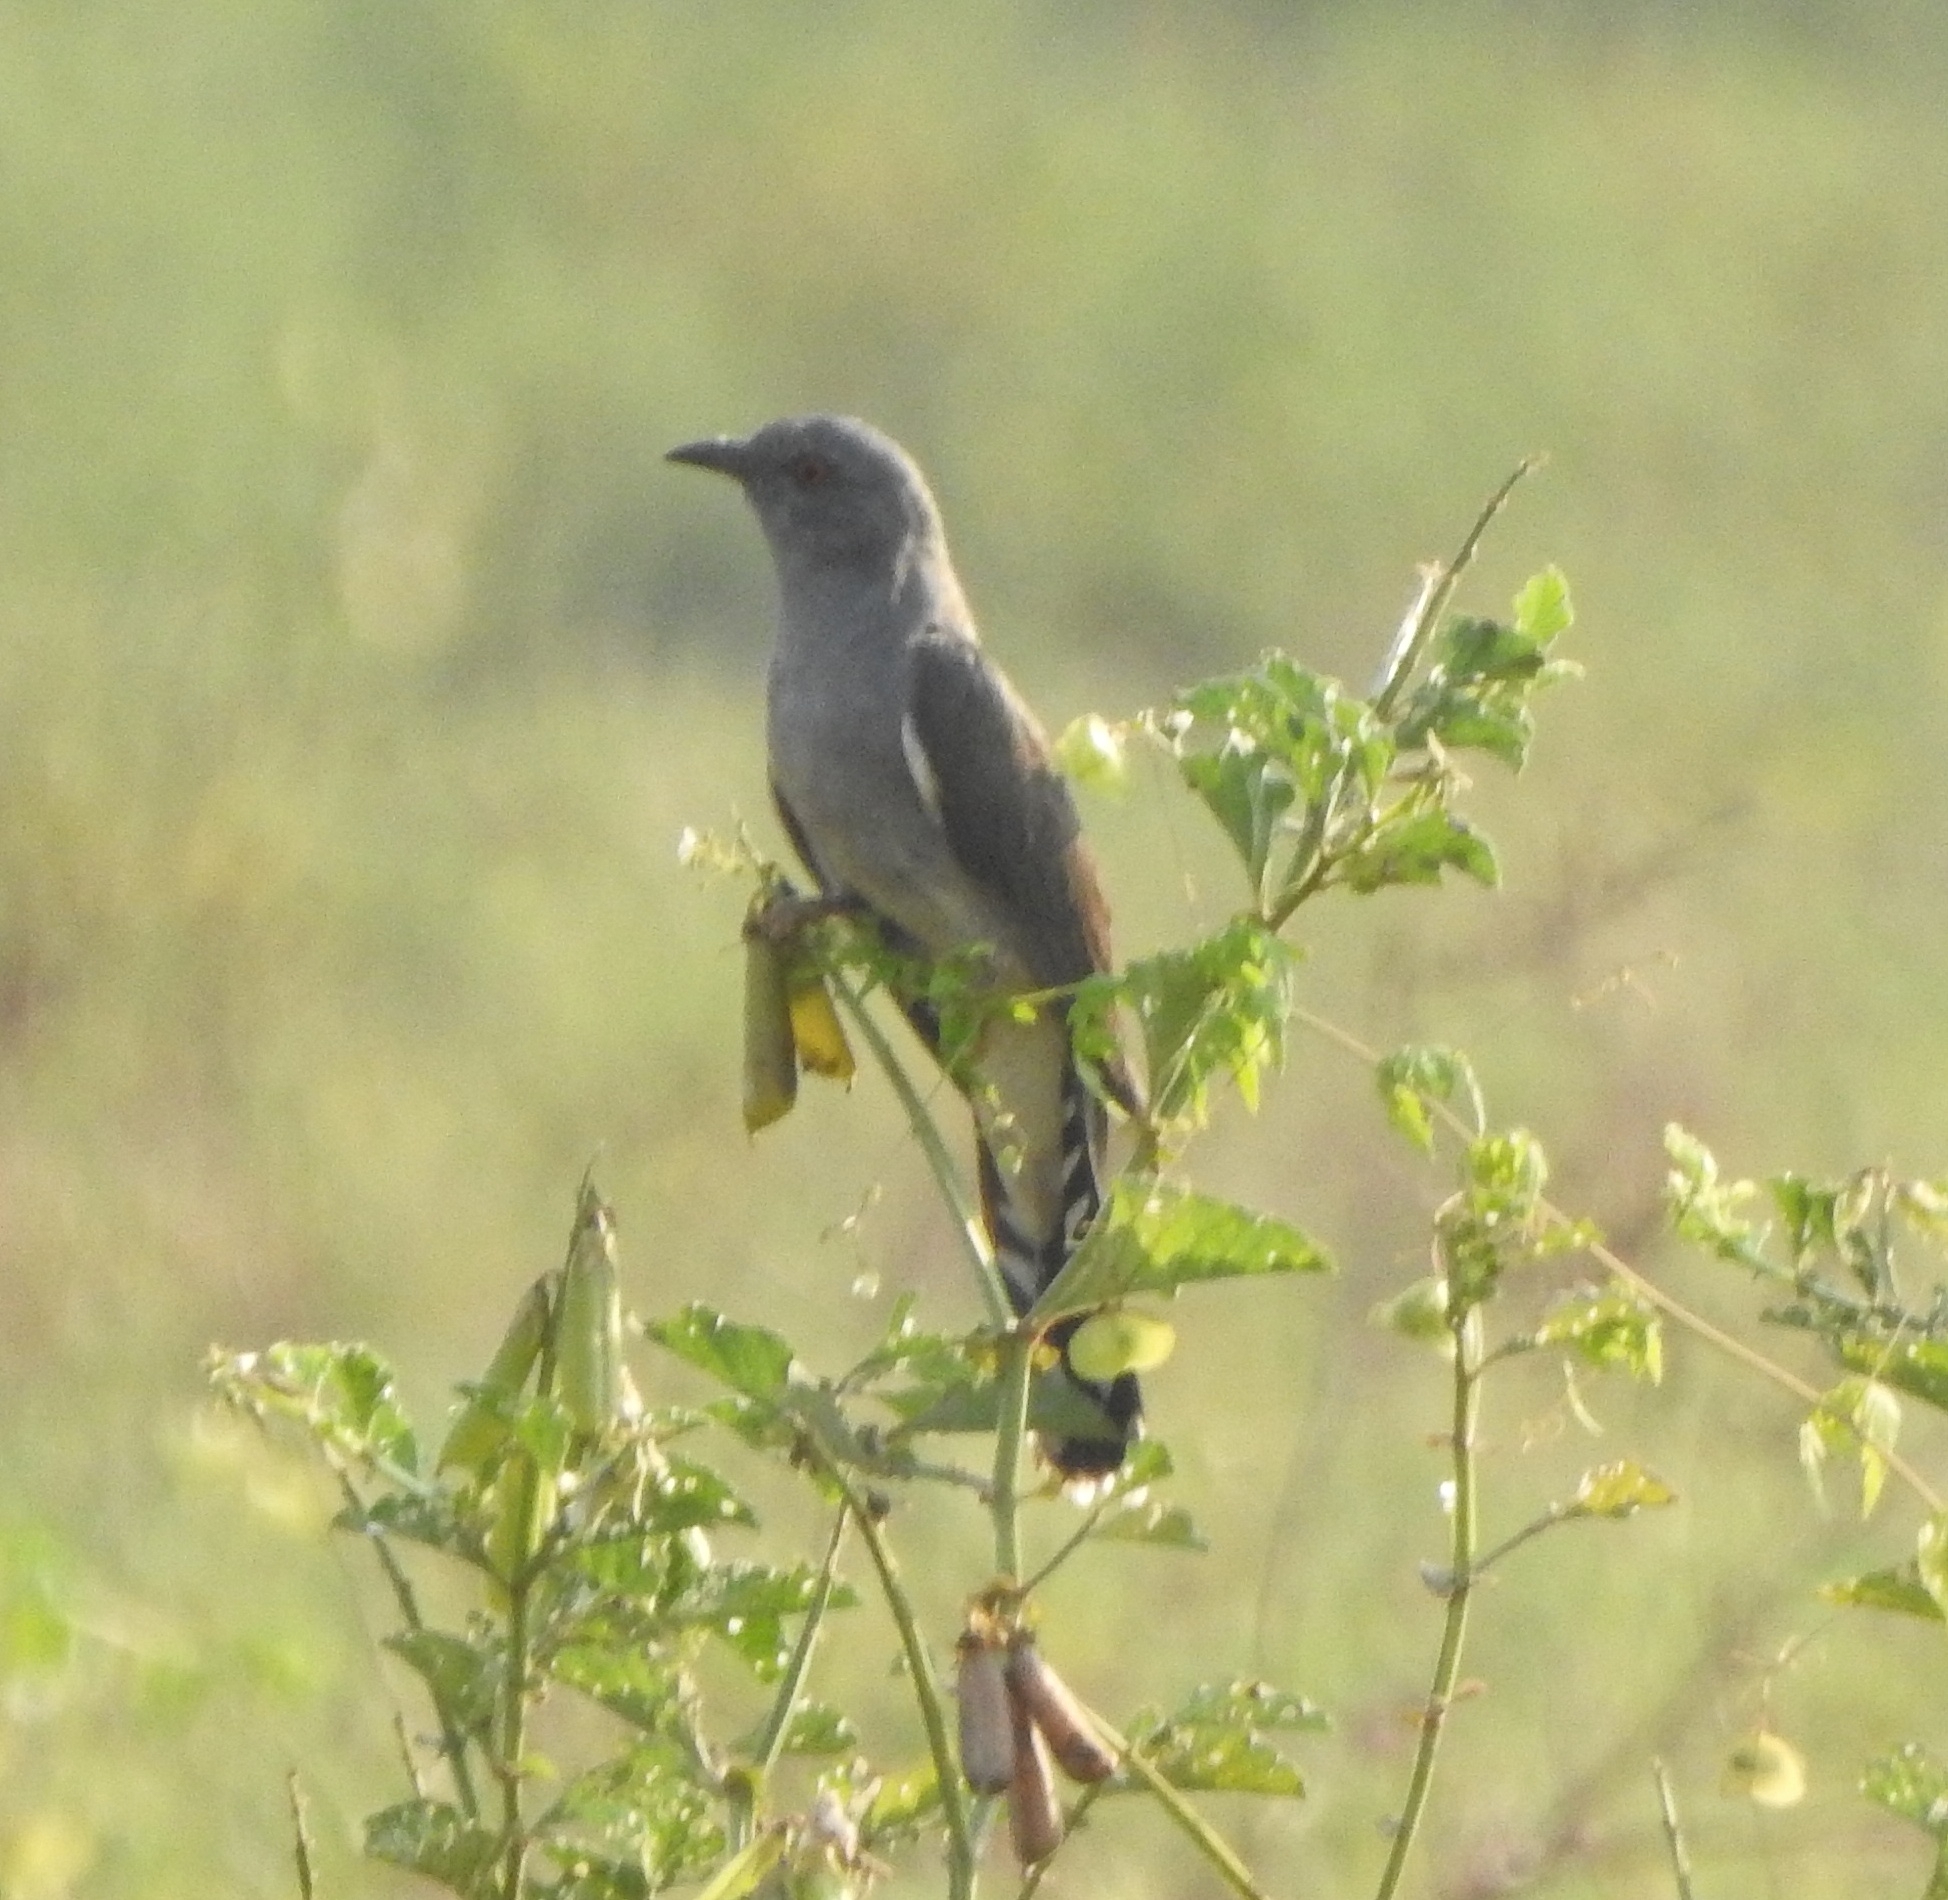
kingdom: Animalia
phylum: Chordata
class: Aves
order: Cuculiformes
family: Cuculidae
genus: Cacomantis
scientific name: Cacomantis passerinus
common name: Grey-bellied cuckoo
